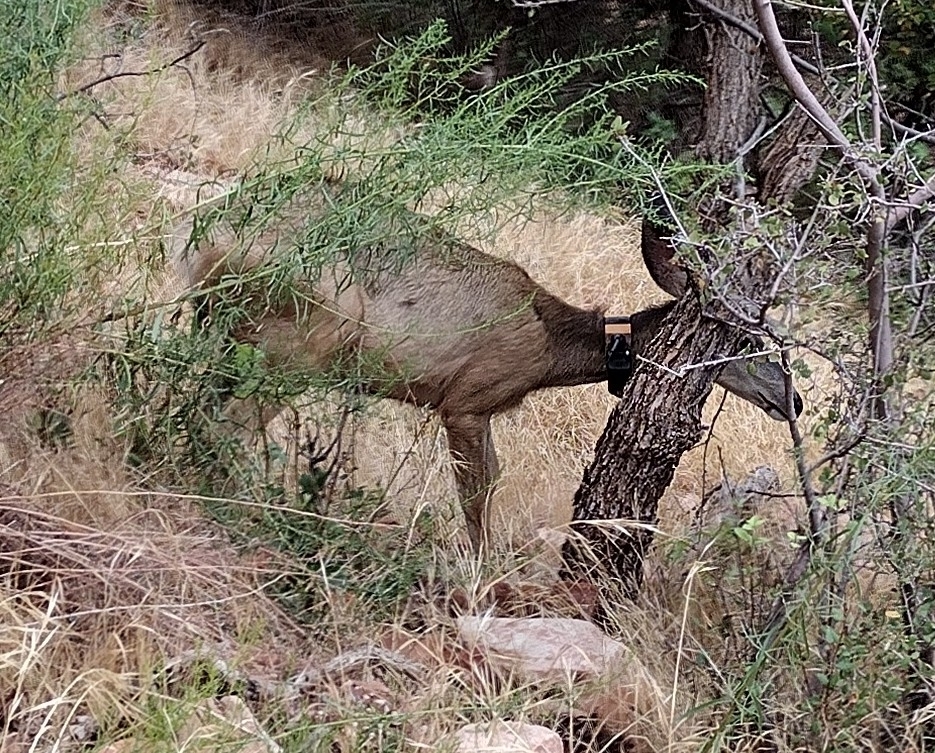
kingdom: Animalia
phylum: Chordata
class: Mammalia
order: Artiodactyla
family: Cervidae
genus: Odocoileus
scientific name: Odocoileus hemionus
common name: Mule deer
